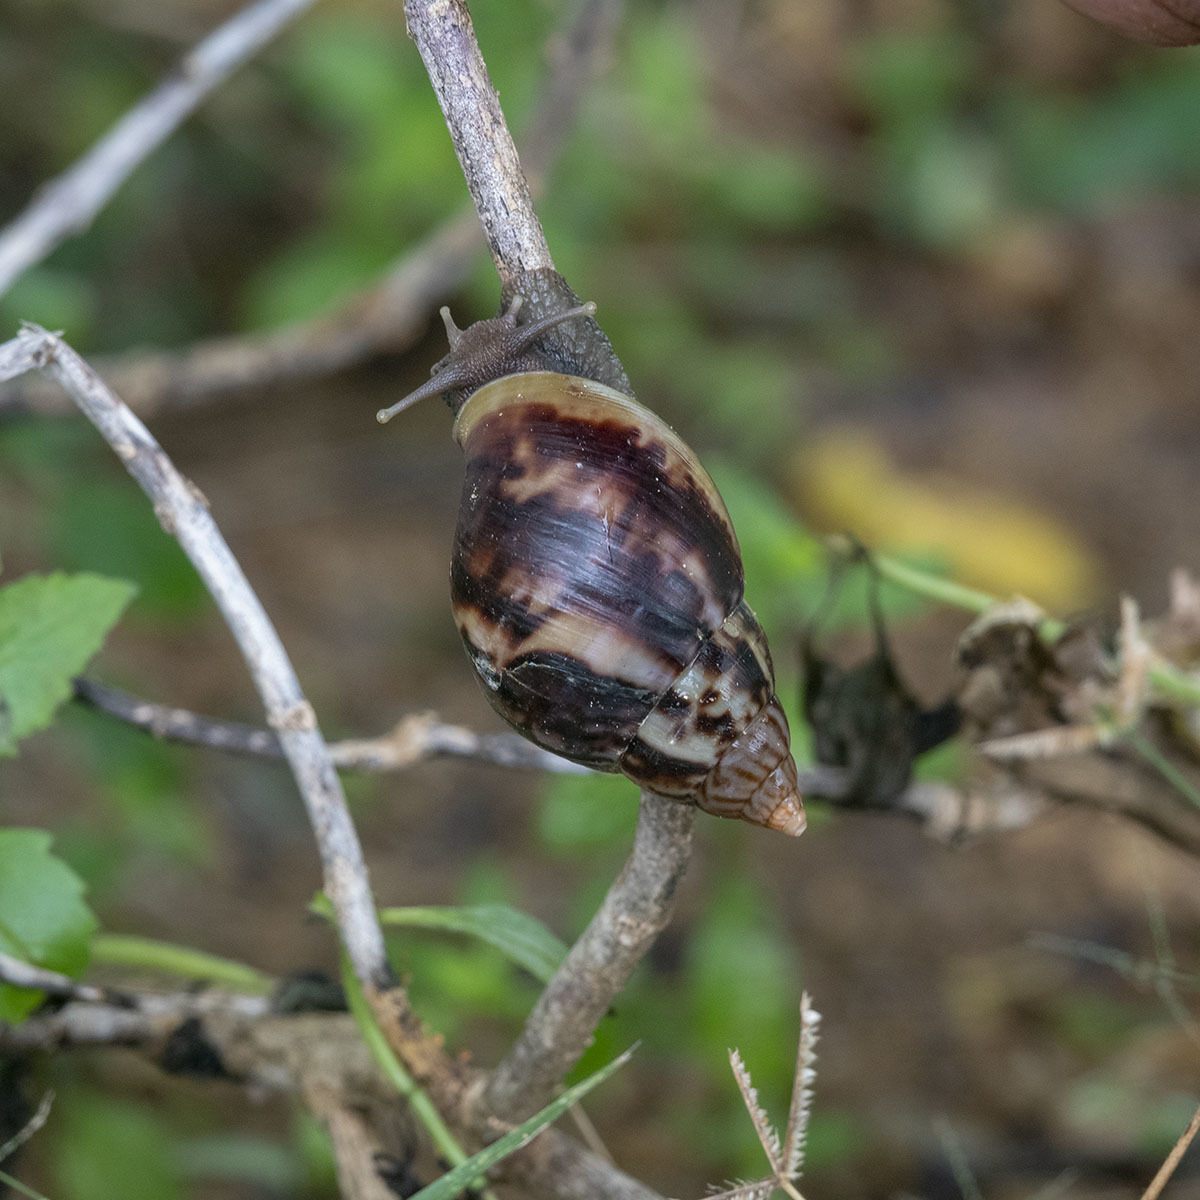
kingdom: Animalia
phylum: Mollusca
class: Gastropoda
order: Stylommatophora
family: Achatinidae
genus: Lissachatina
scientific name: Lissachatina fulica
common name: Giant african snail
